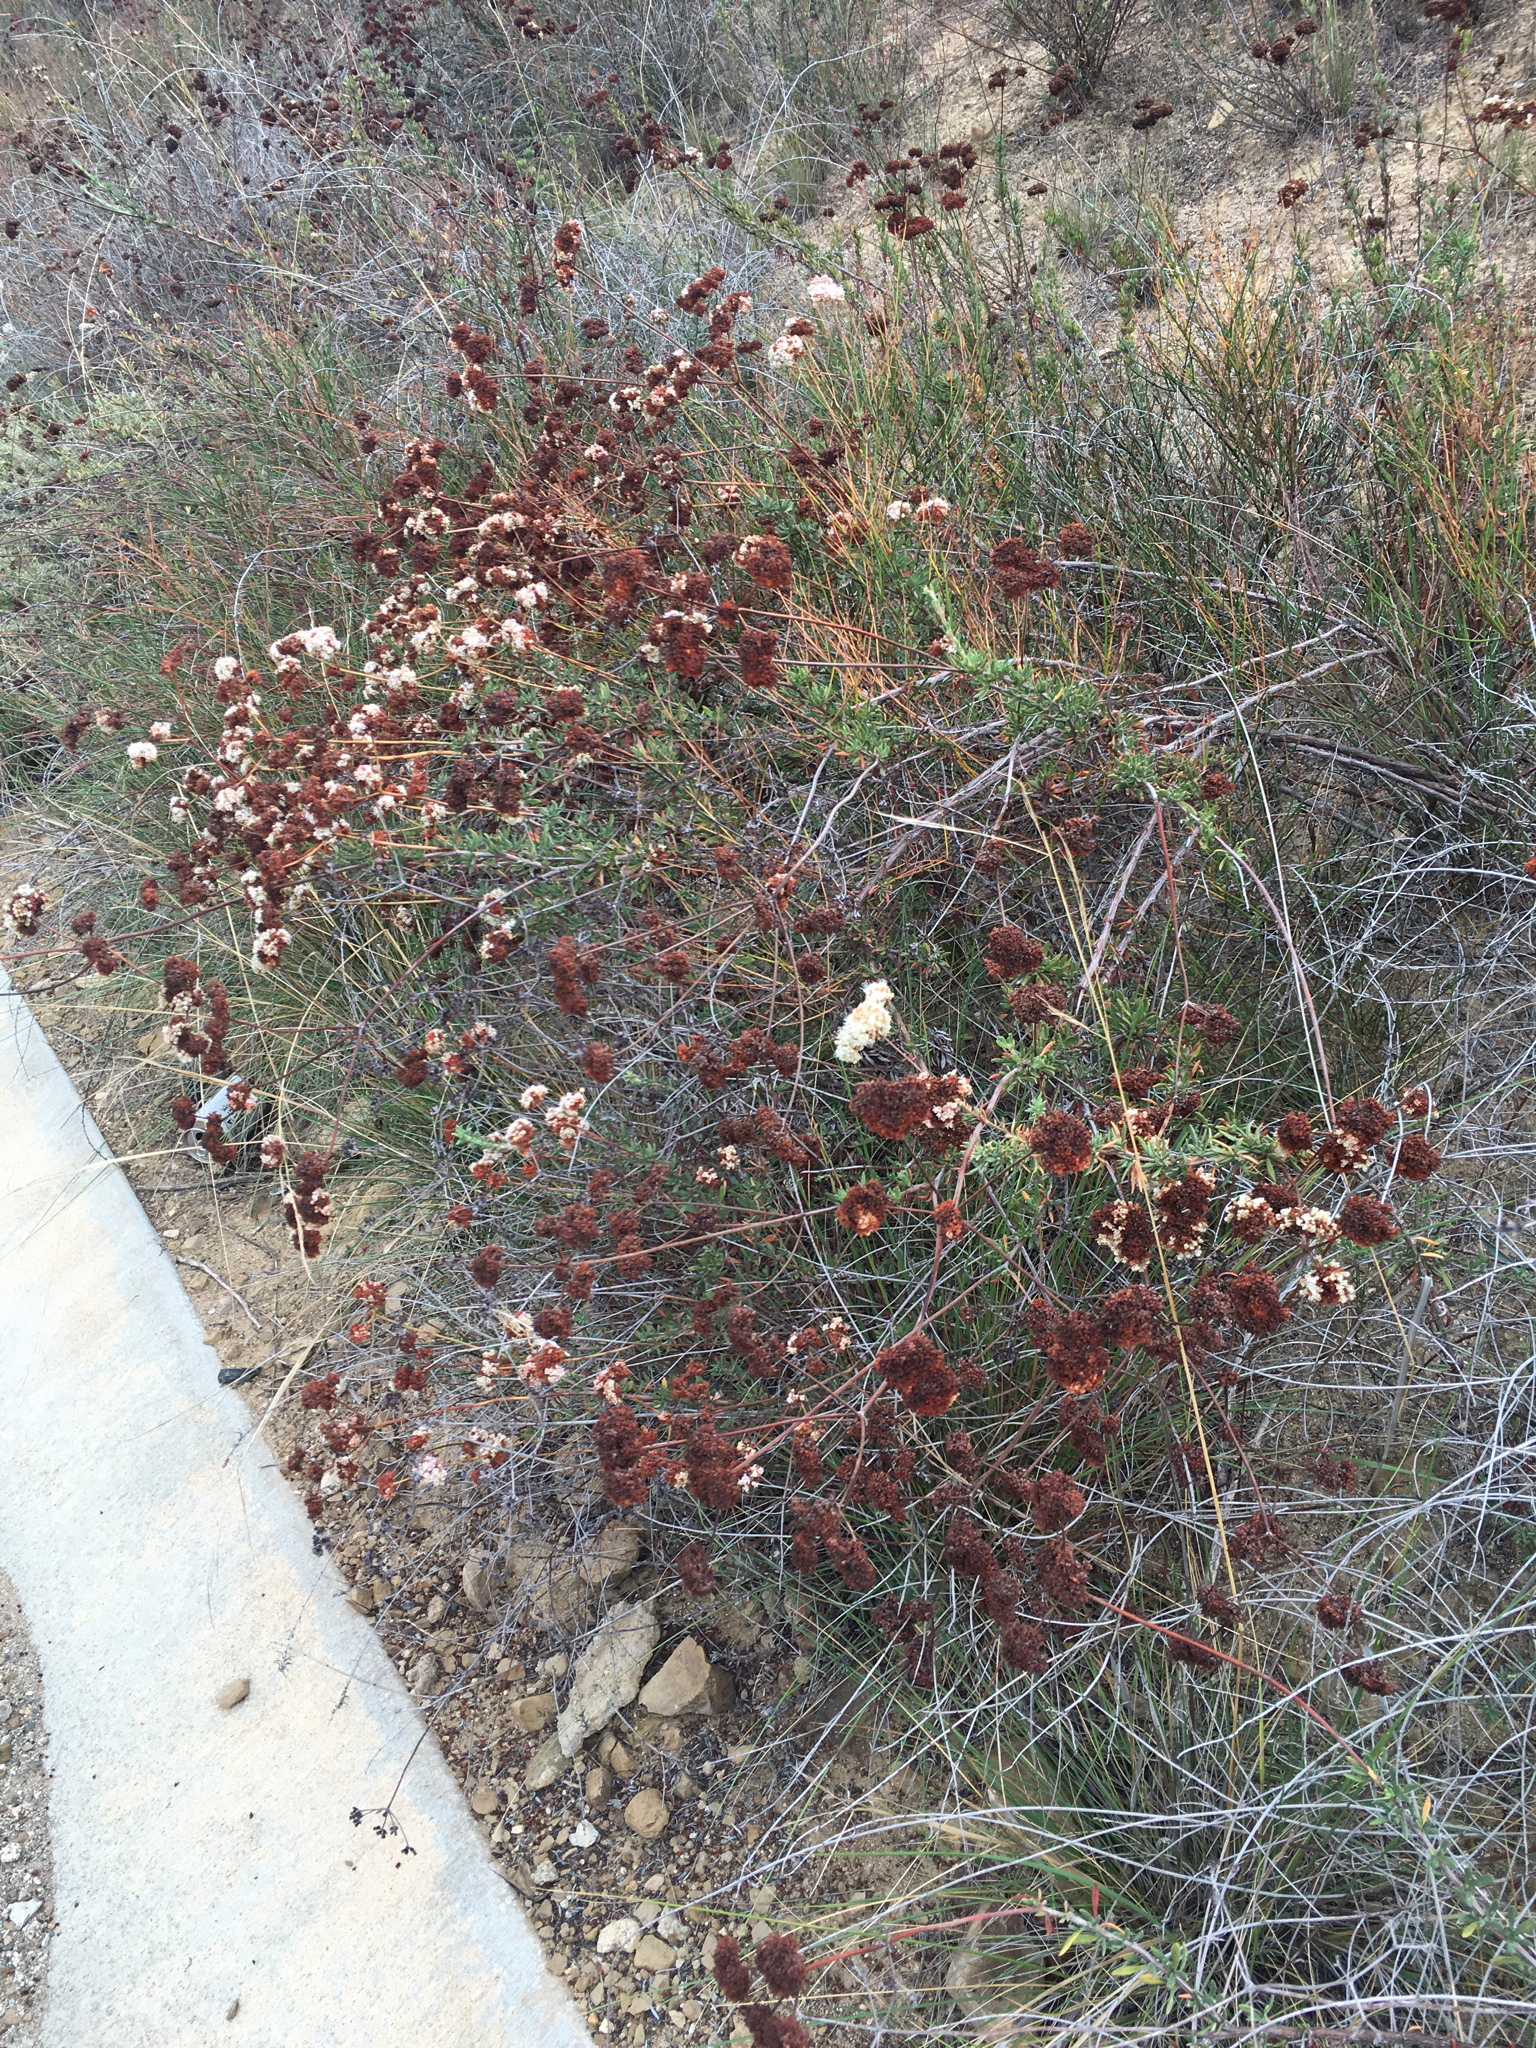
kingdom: Plantae
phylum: Tracheophyta
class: Magnoliopsida
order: Caryophyllales
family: Polygonaceae
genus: Eriogonum
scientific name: Eriogonum fasciculatum
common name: California wild buckwheat
